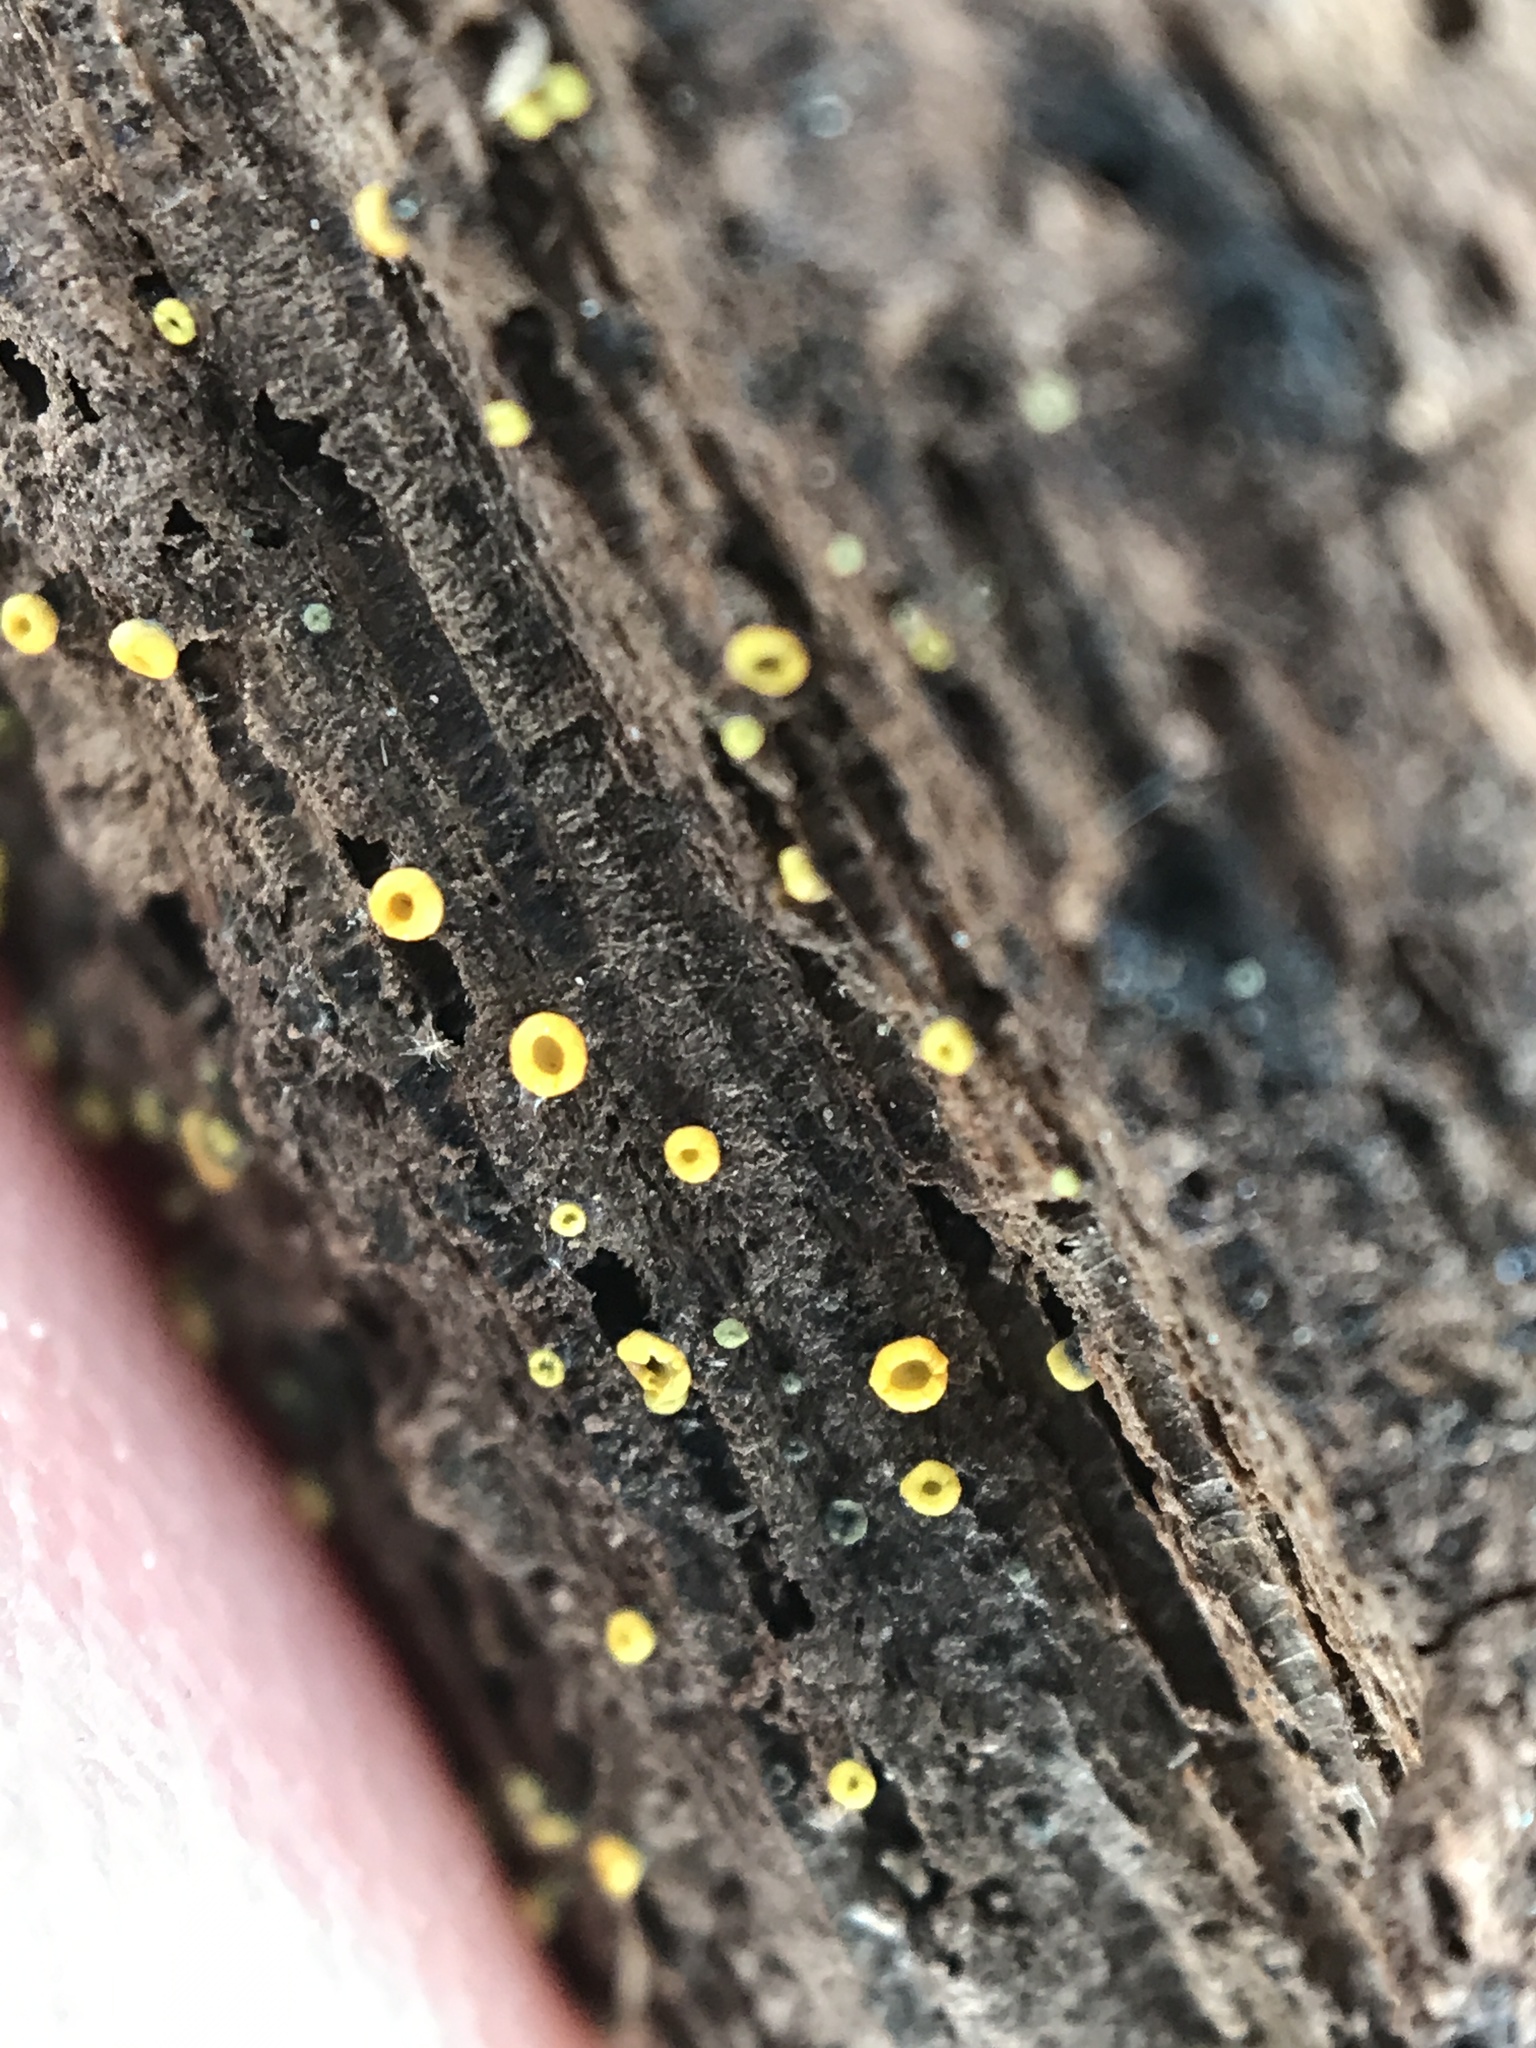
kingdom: Fungi
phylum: Ascomycota
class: Leotiomycetes
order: Helotiales
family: Chlorospleniaceae
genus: Chlorosplenium
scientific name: Chlorosplenium chlora
